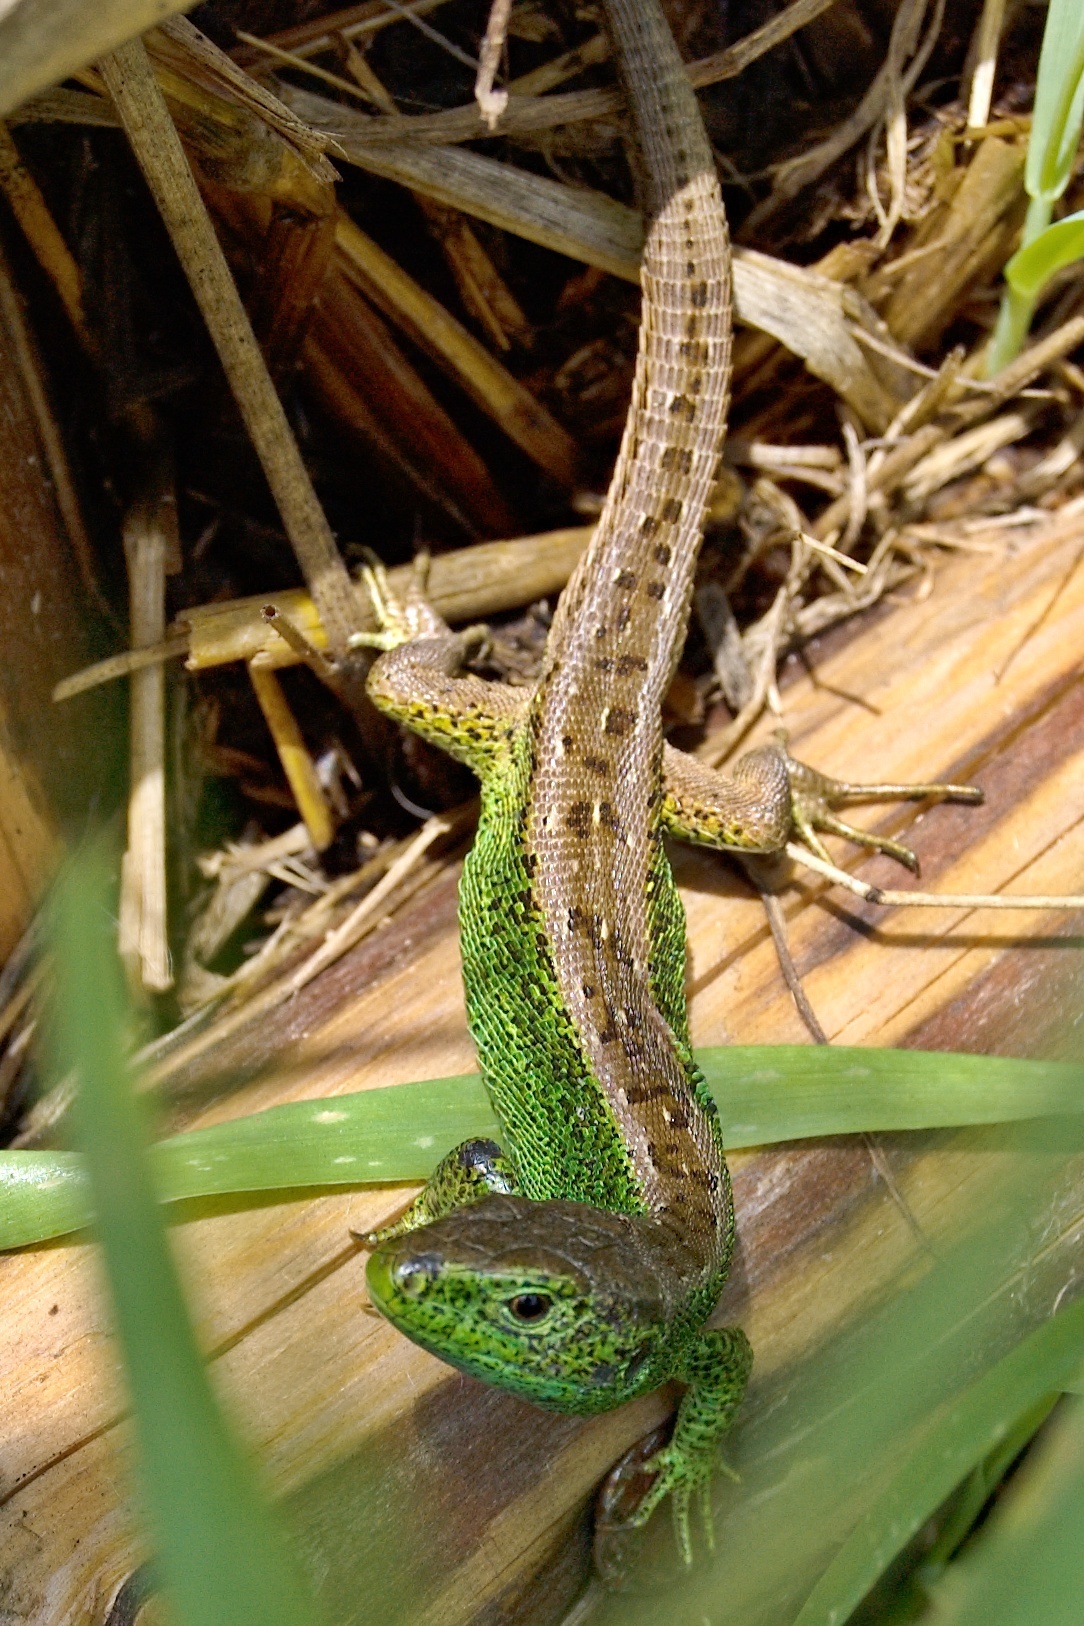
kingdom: Animalia
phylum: Chordata
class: Squamata
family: Lacertidae
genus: Lacerta
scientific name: Lacerta agilis
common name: Sand lizard
